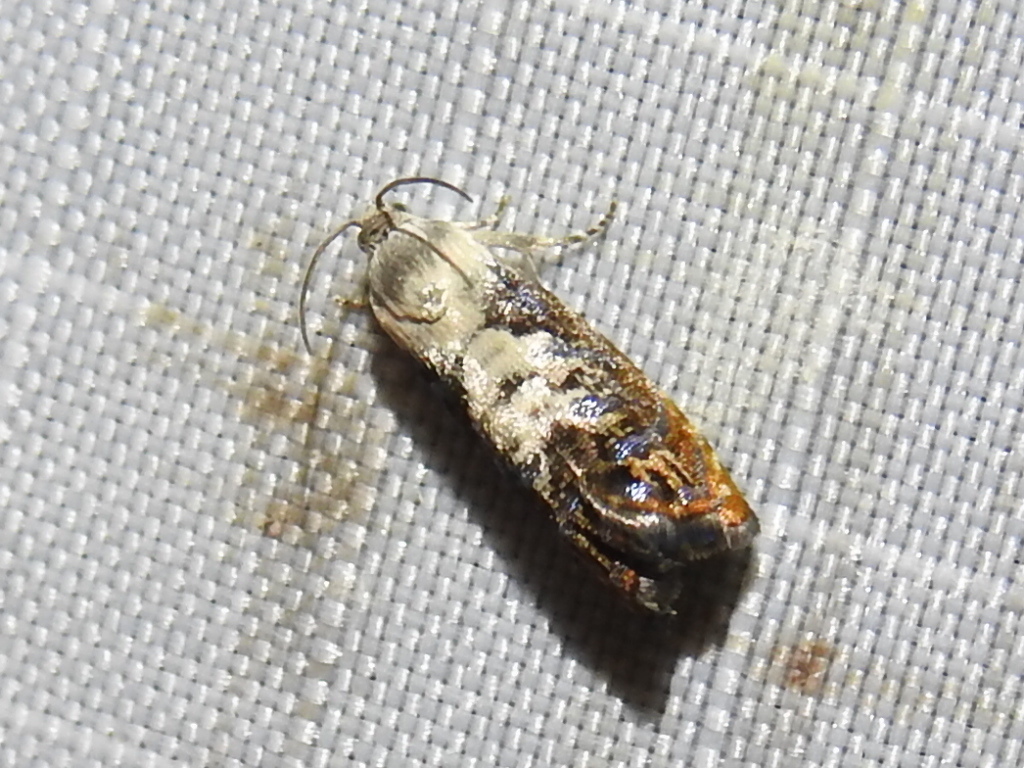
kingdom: Animalia
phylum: Arthropoda
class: Insecta
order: Lepidoptera
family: Tortricidae
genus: Pammene
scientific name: Pammene felicitana
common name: Happy pammene
